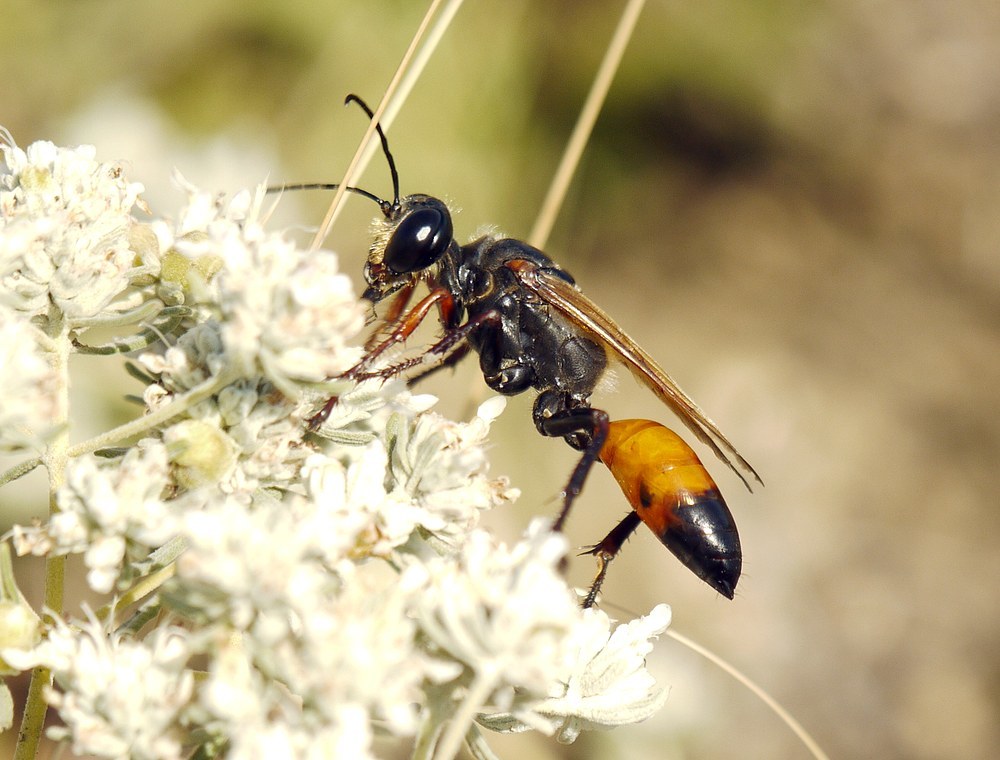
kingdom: Animalia
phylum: Arthropoda
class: Insecta
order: Hymenoptera
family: Sphecidae
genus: Sphex
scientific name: Sphex flavipennis
